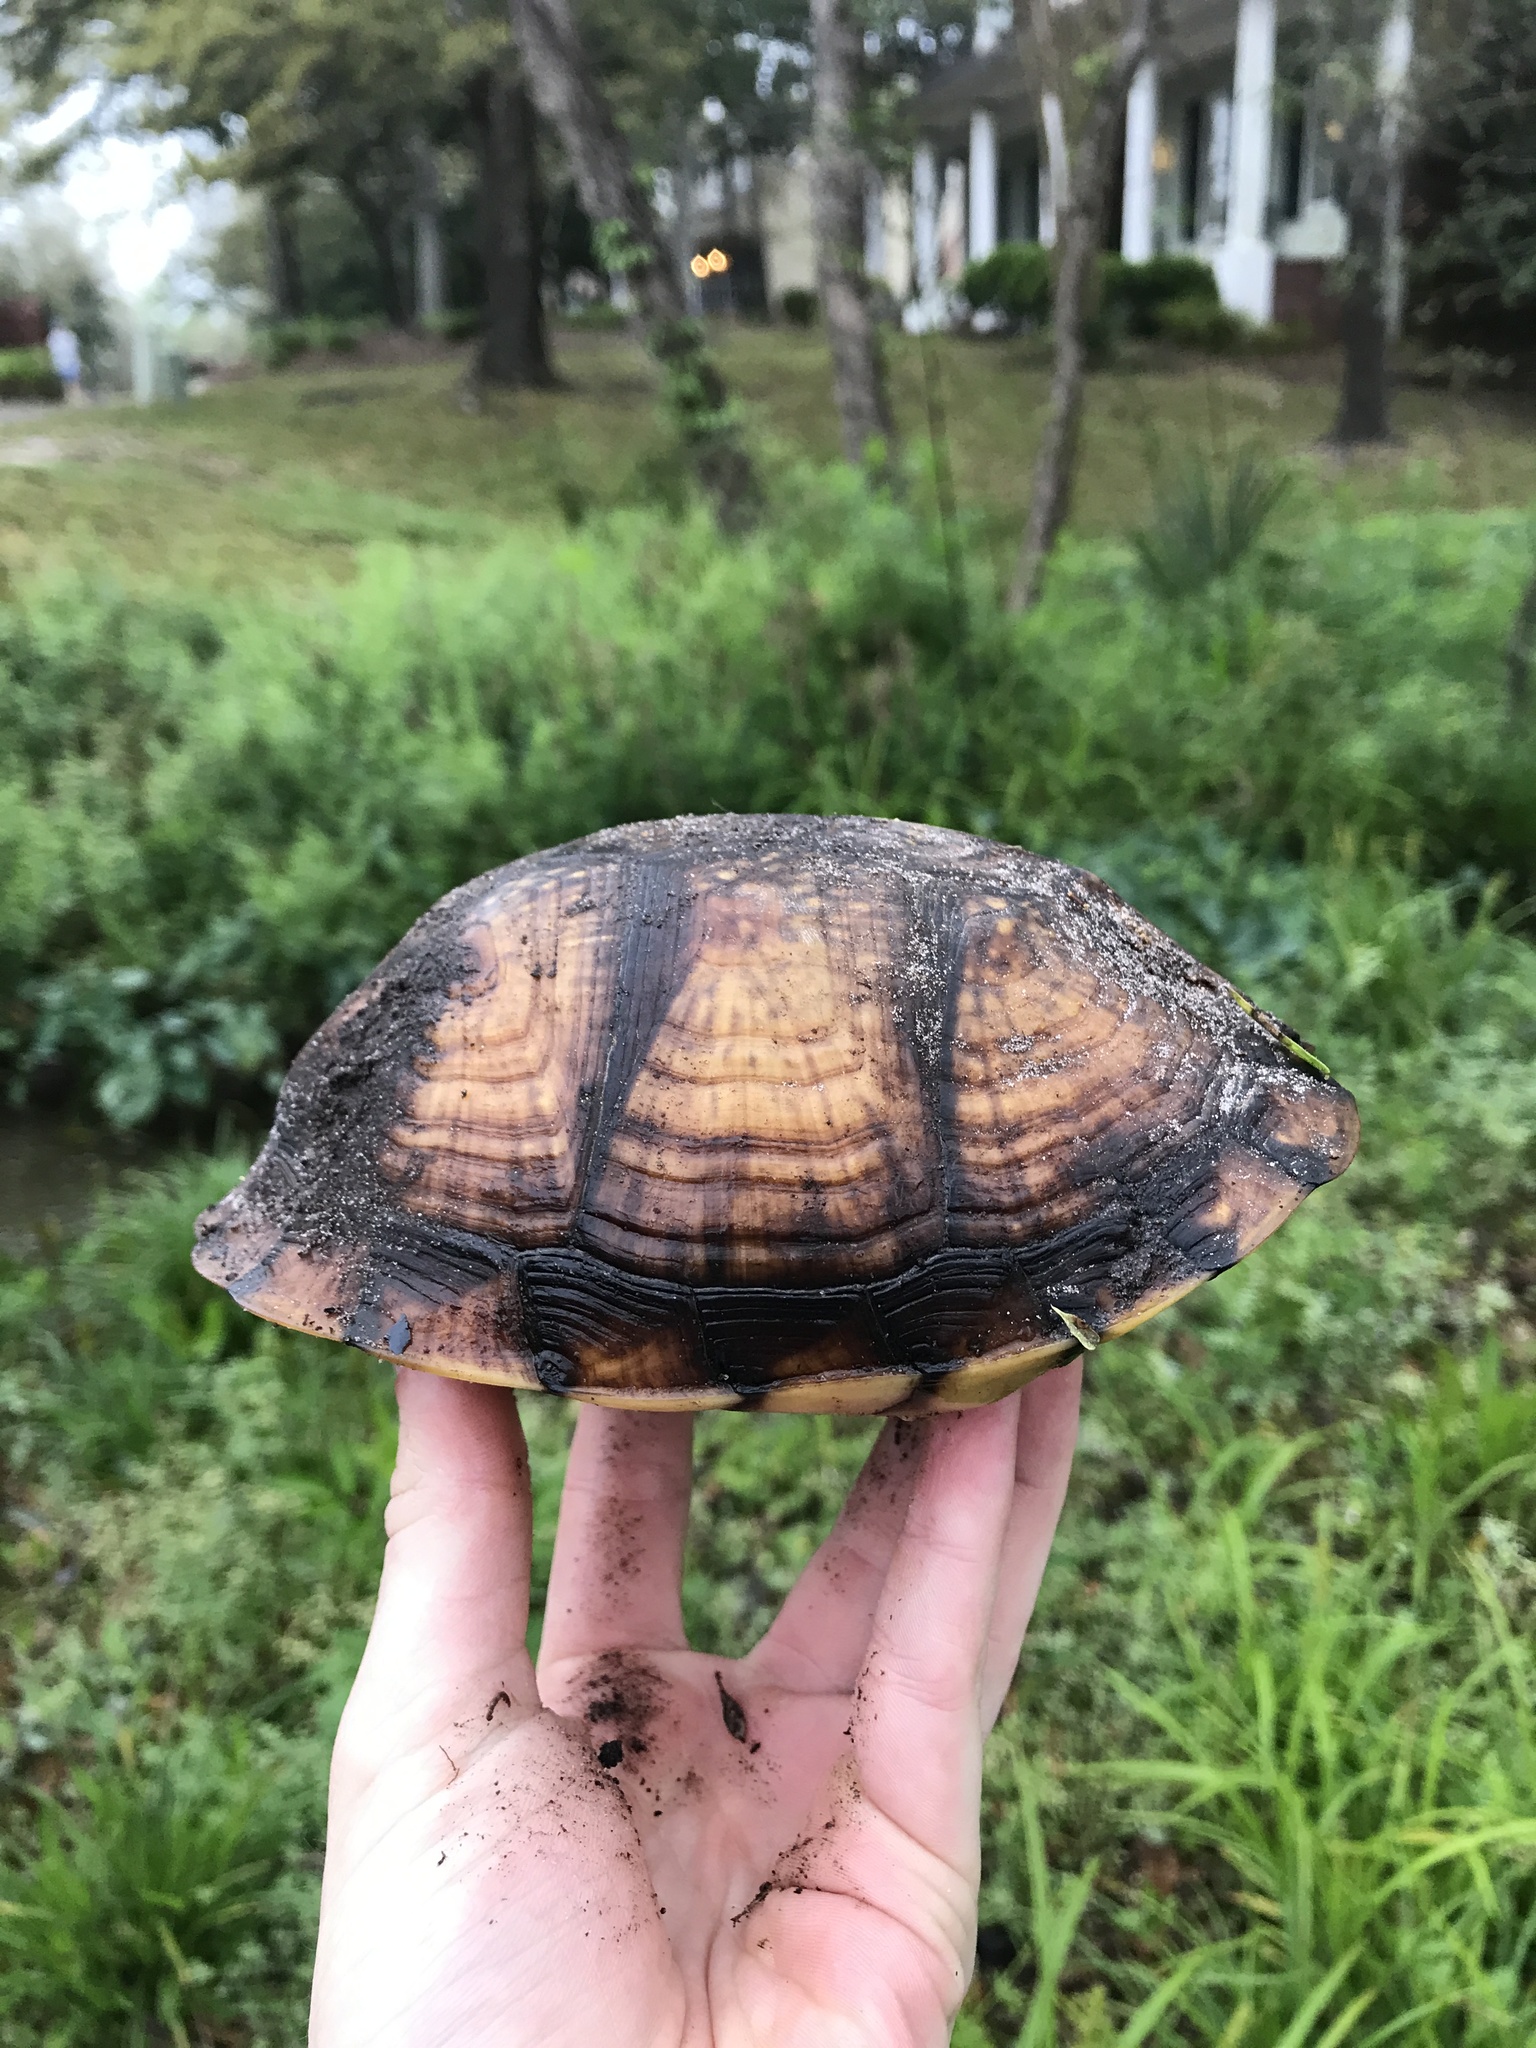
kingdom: Animalia
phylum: Chordata
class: Testudines
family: Emydidae
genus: Terrapene
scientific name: Terrapene carolina
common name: Common box turtle
